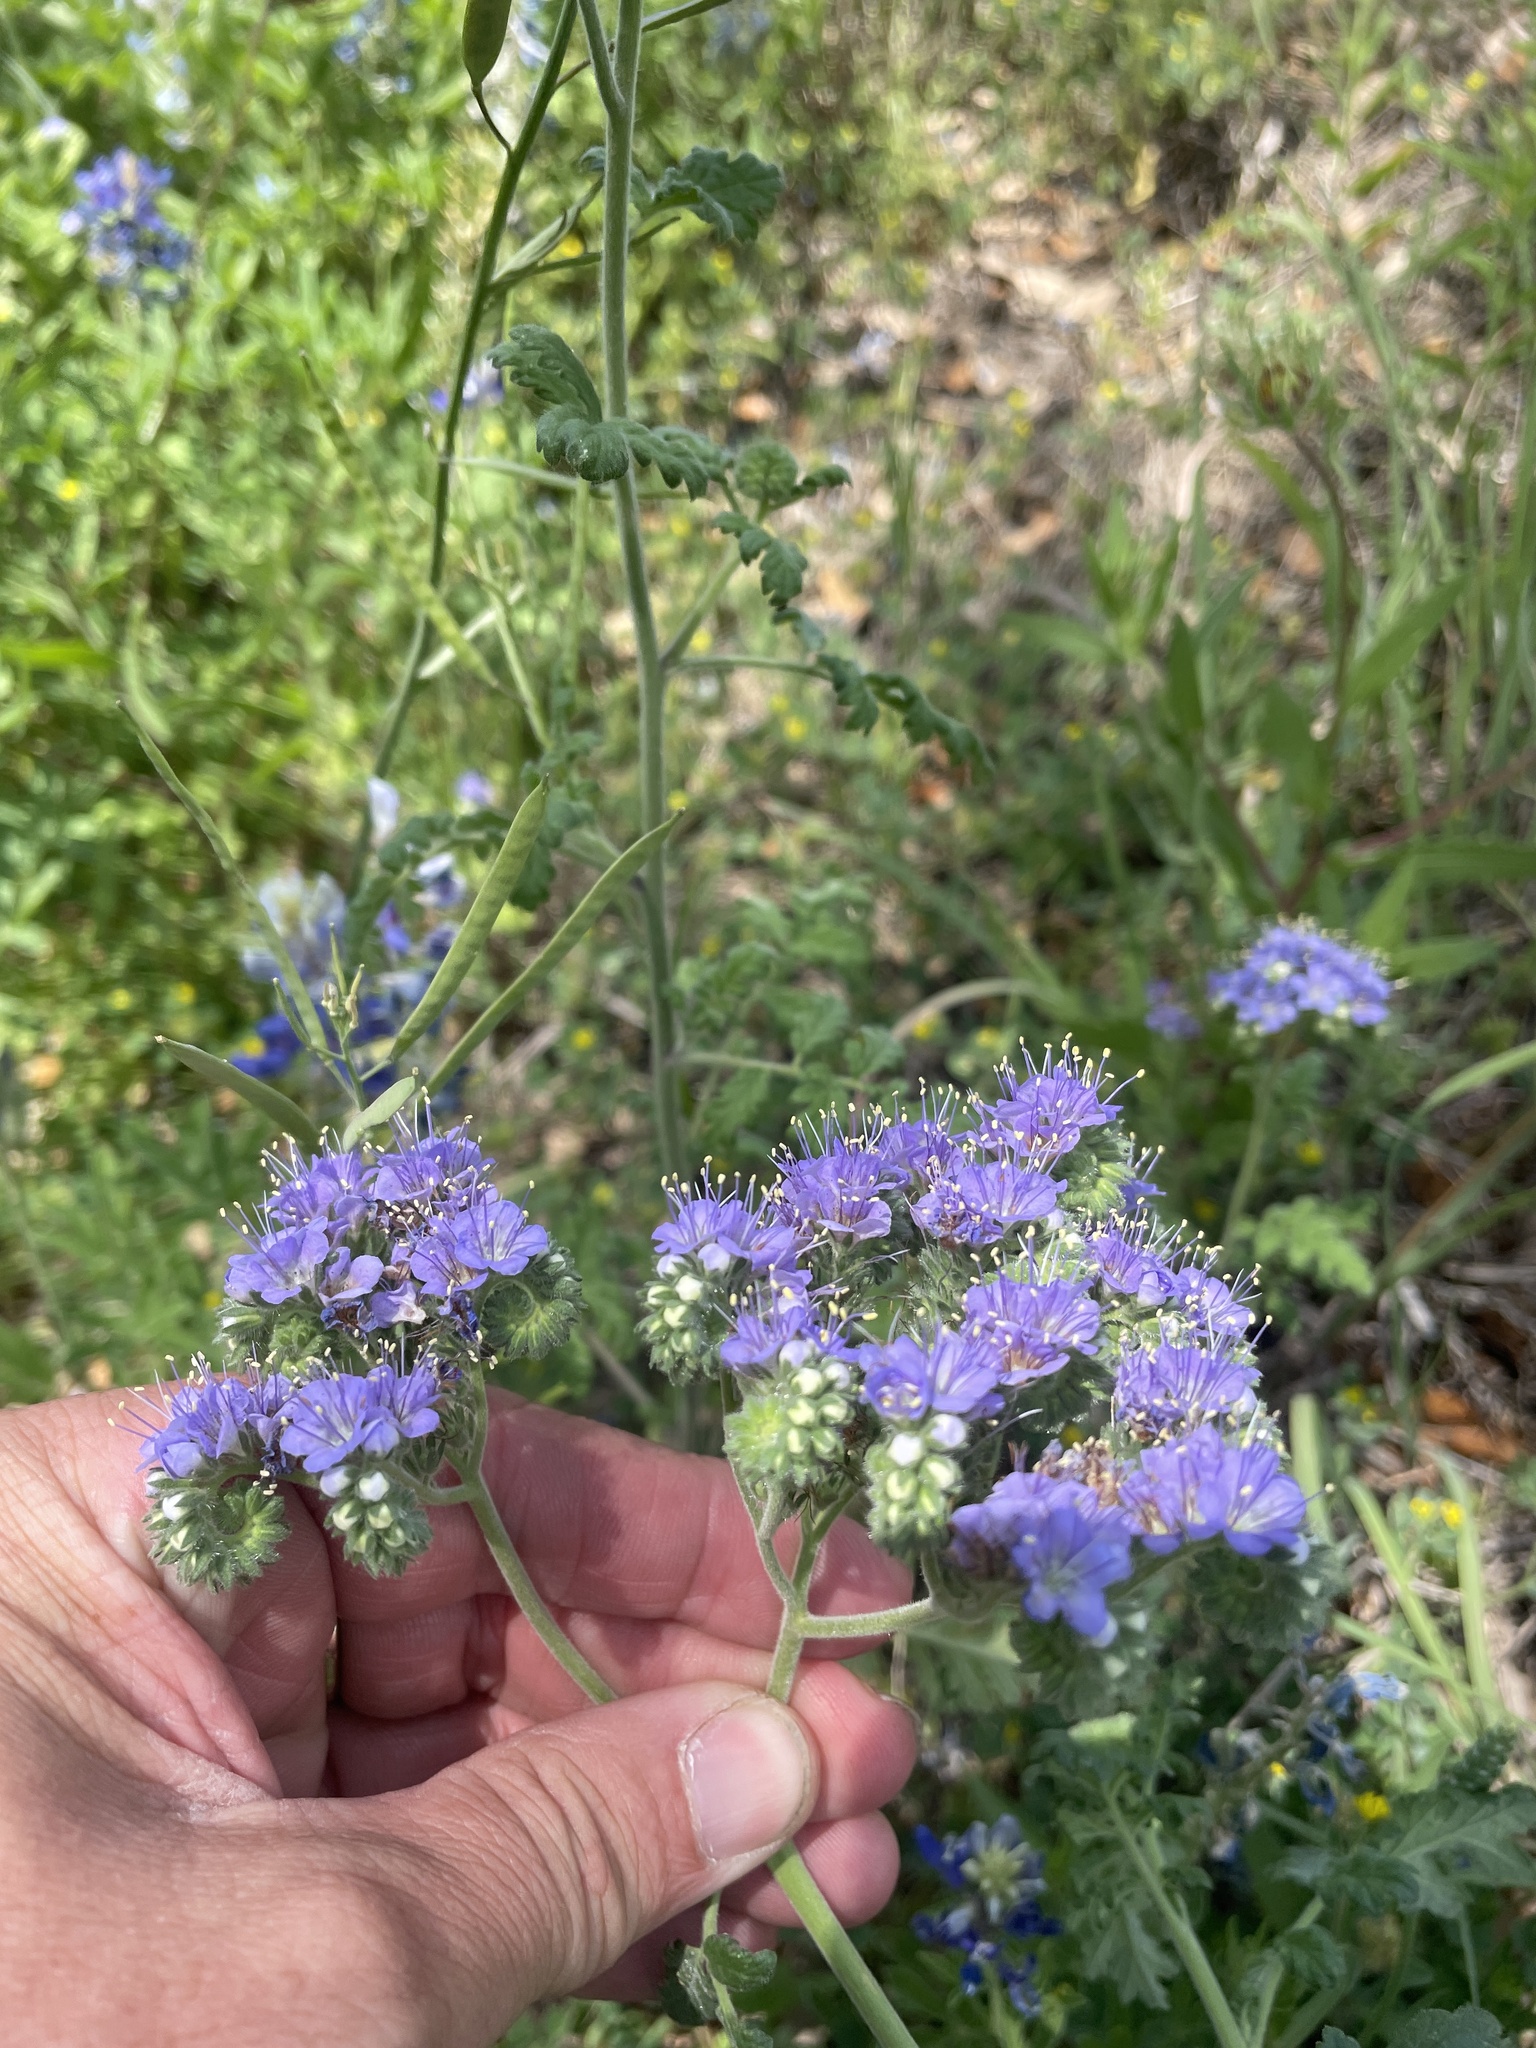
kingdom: Plantae
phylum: Tracheophyta
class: Magnoliopsida
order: Boraginales
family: Hydrophyllaceae
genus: Phacelia
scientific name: Phacelia congesta
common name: Blue curls
